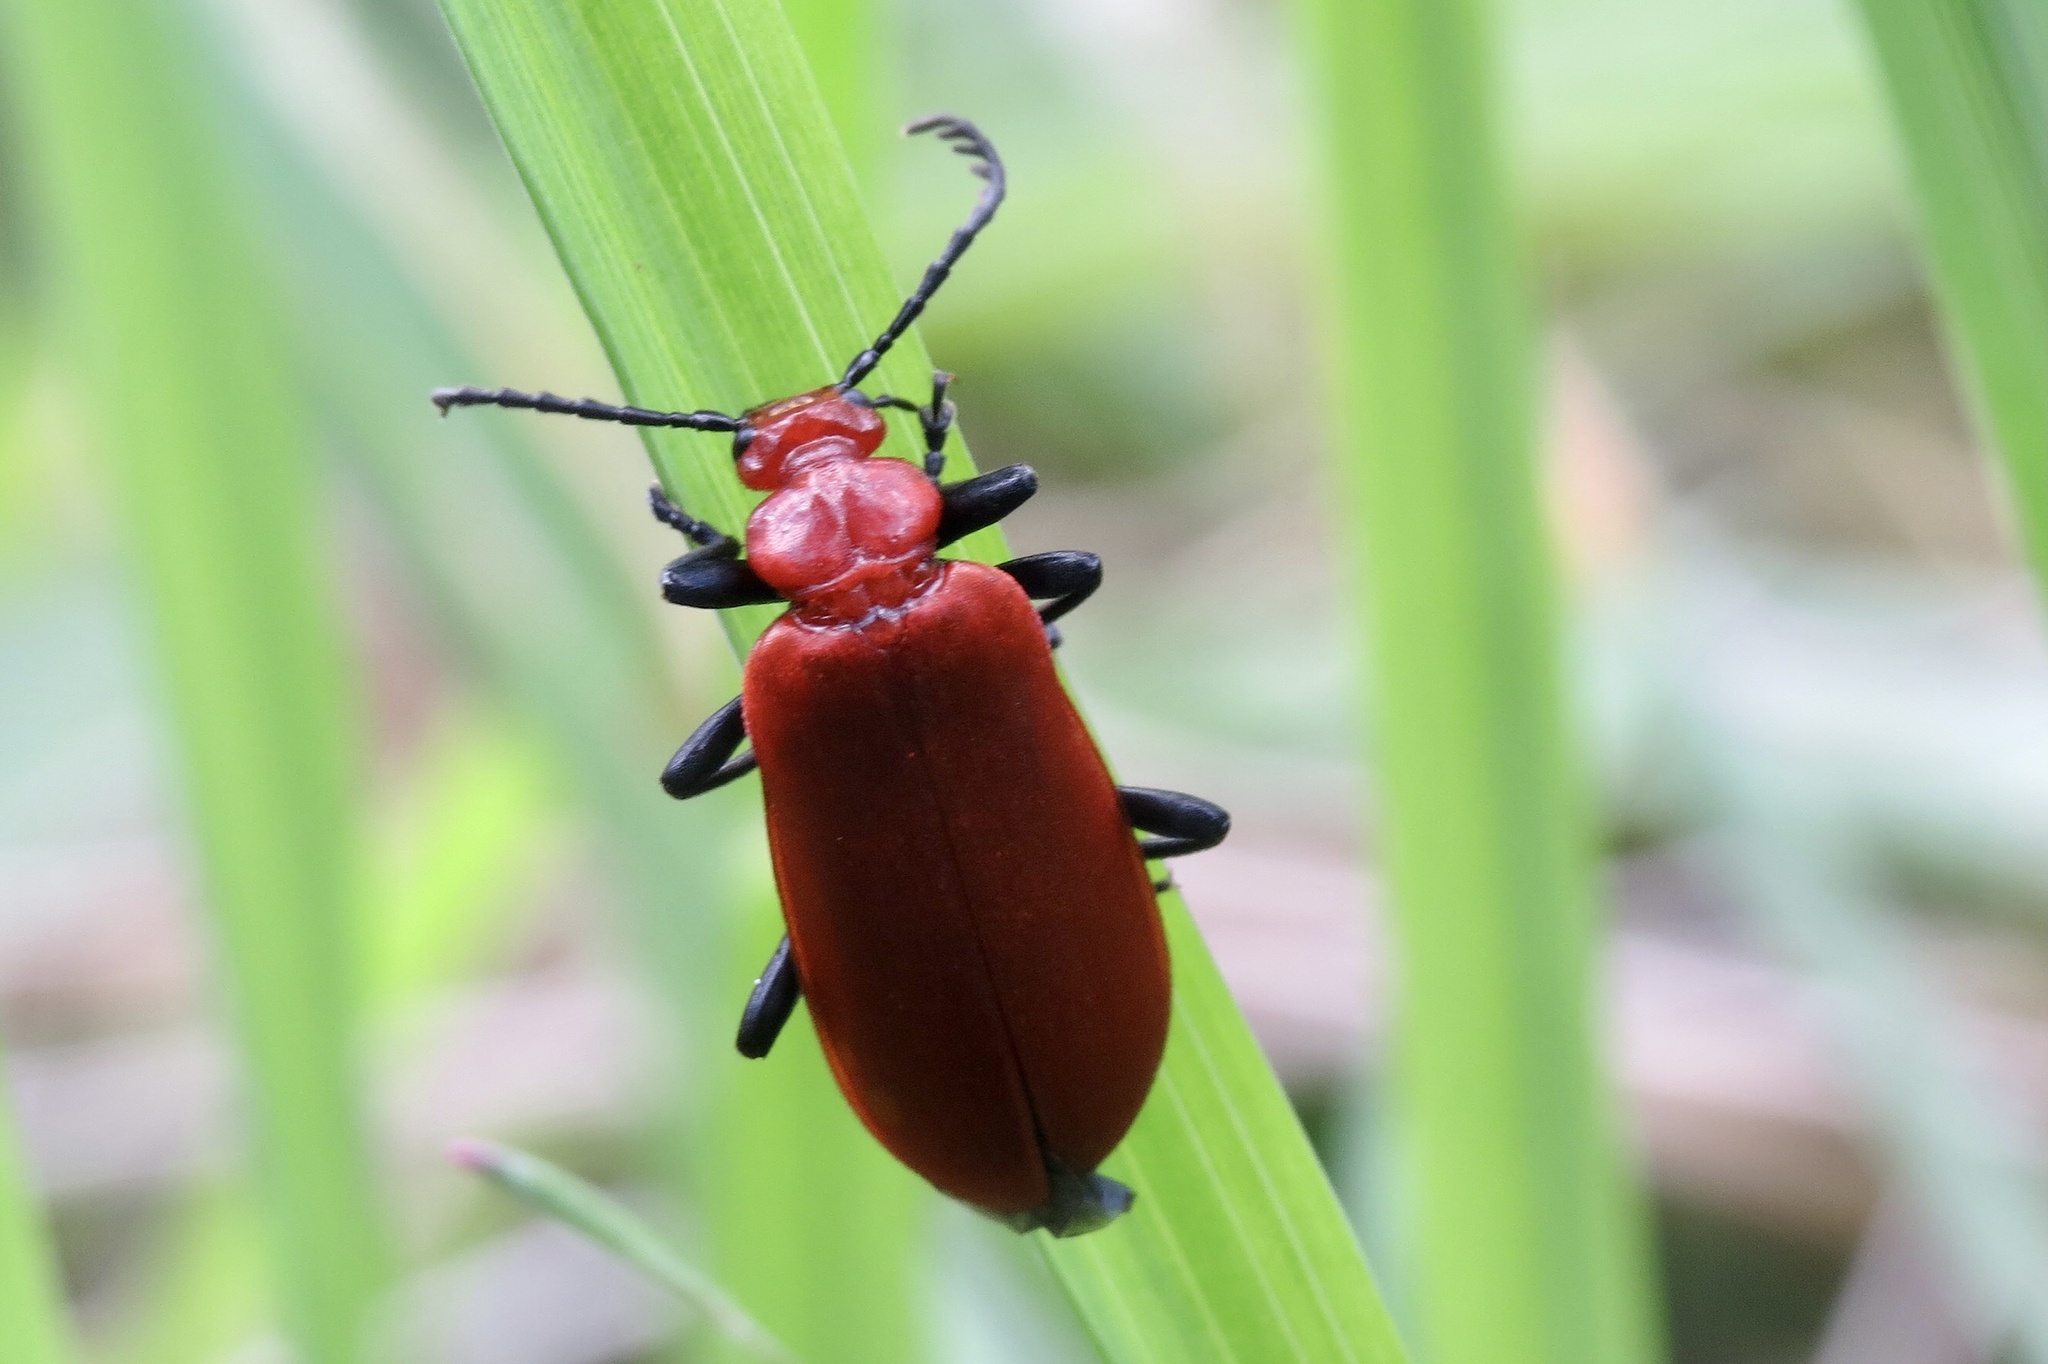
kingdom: Animalia
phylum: Arthropoda
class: Insecta
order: Coleoptera
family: Pyrochroidae
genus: Pyrochroa
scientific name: Pyrochroa serraticornis
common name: Red-headed cardinal beetle
